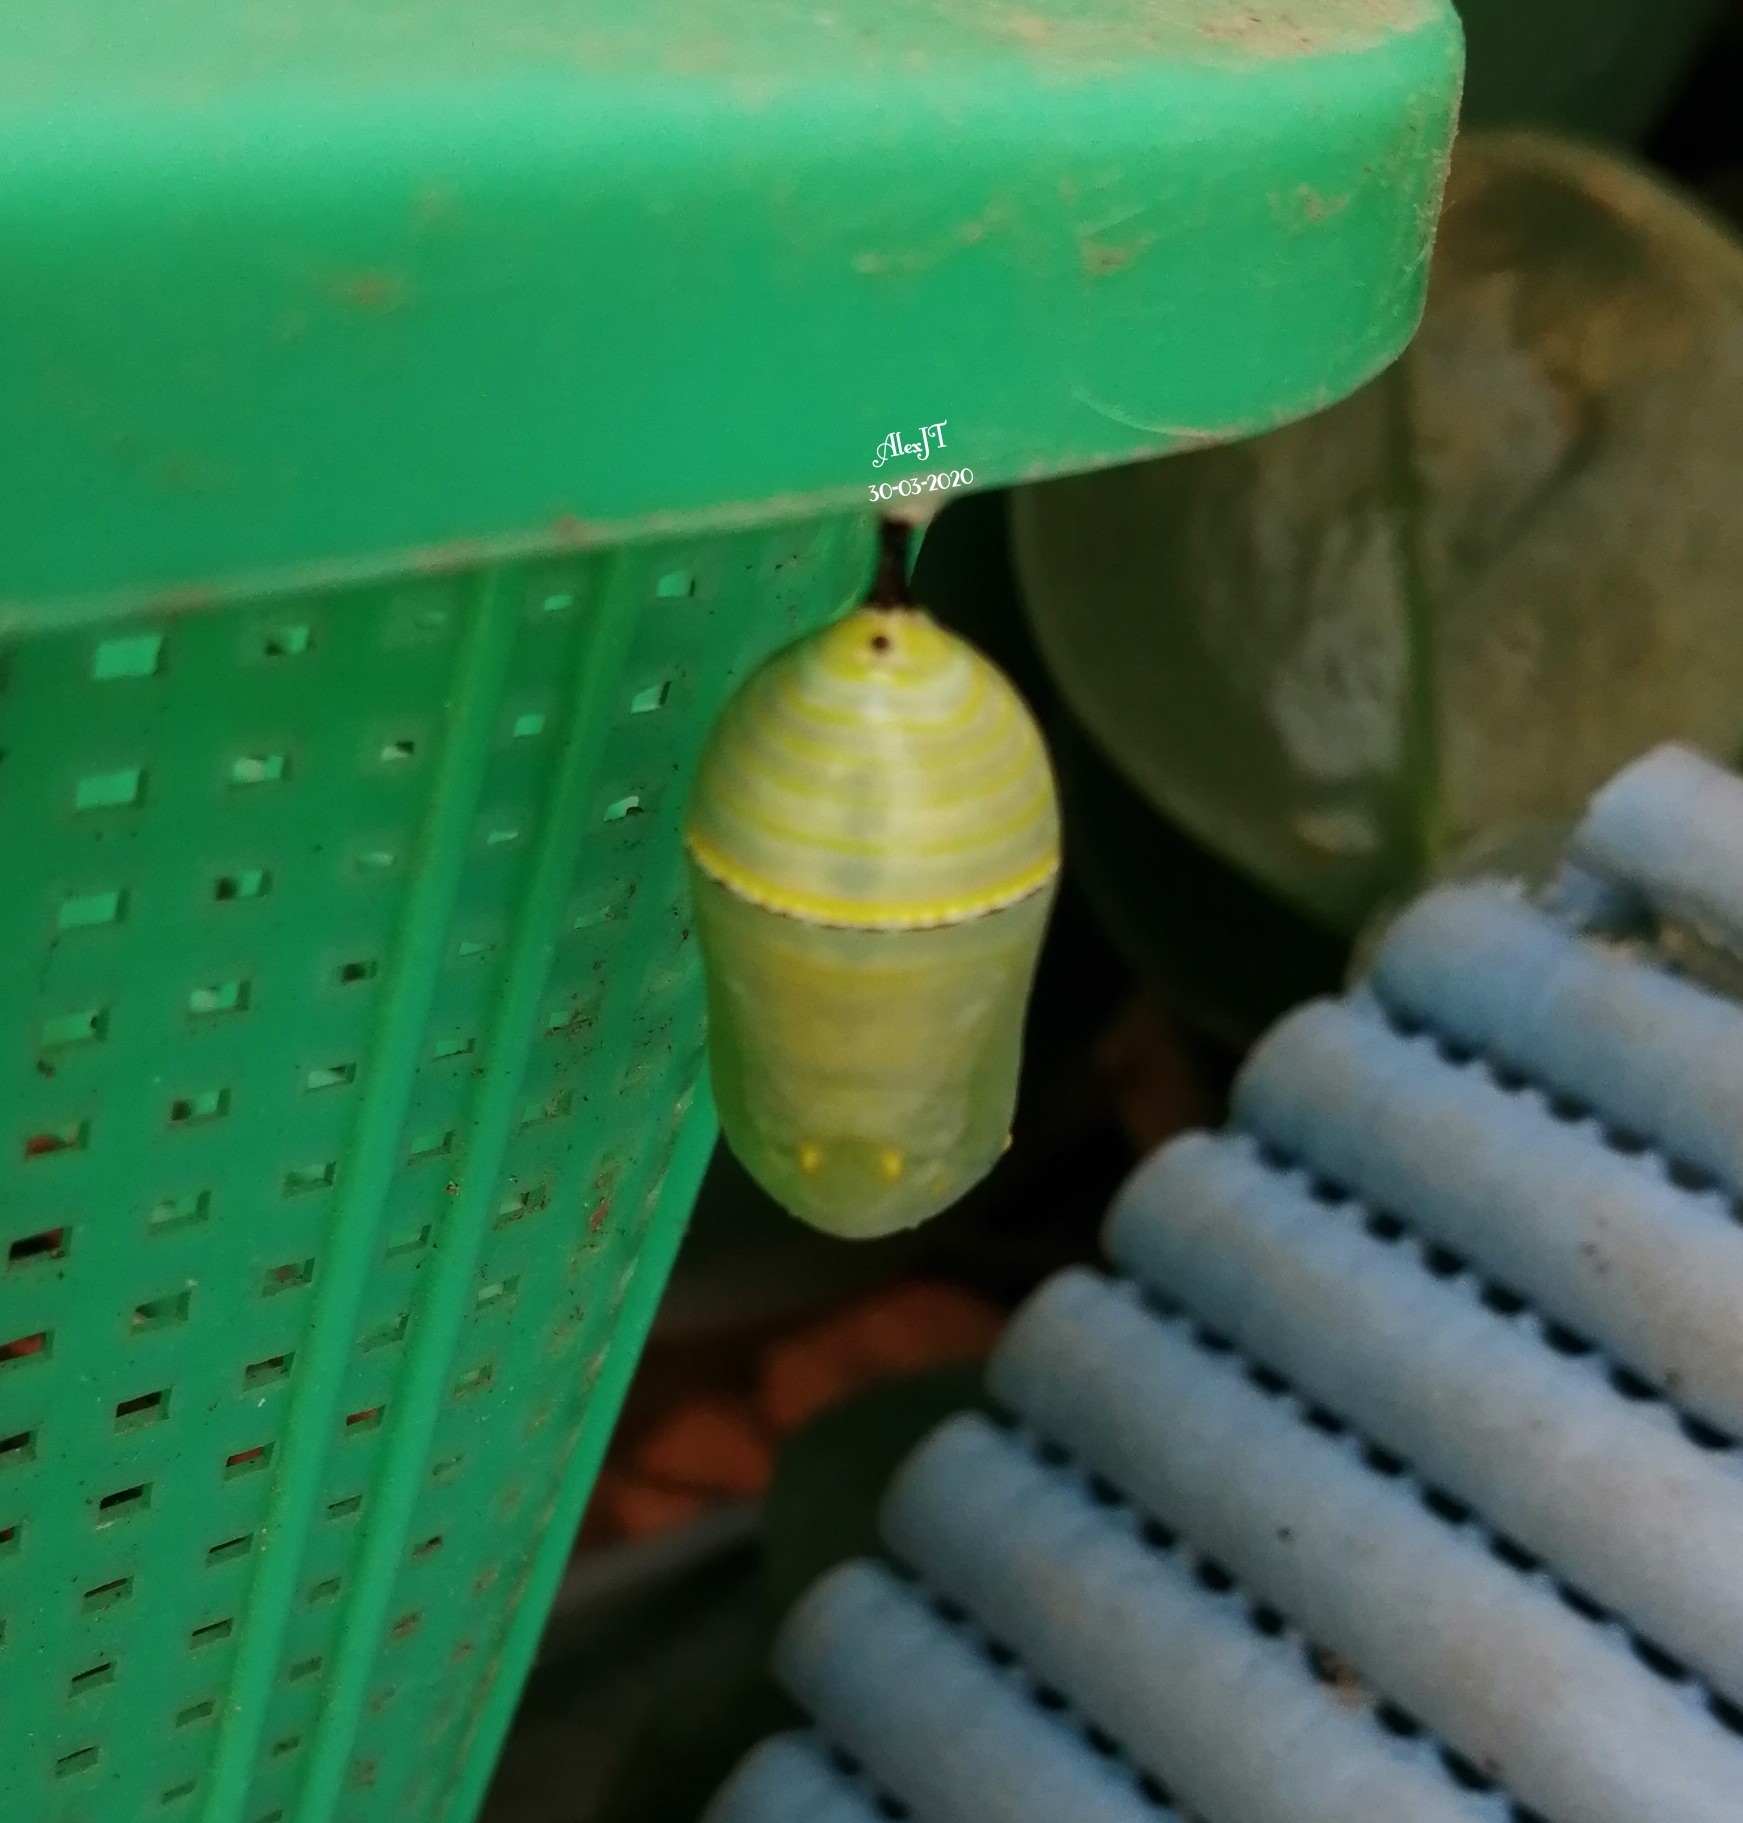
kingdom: Animalia
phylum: Arthropoda
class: Insecta
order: Lepidoptera
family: Nymphalidae
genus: Danaus
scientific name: Danaus plexippus
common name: Monarch
